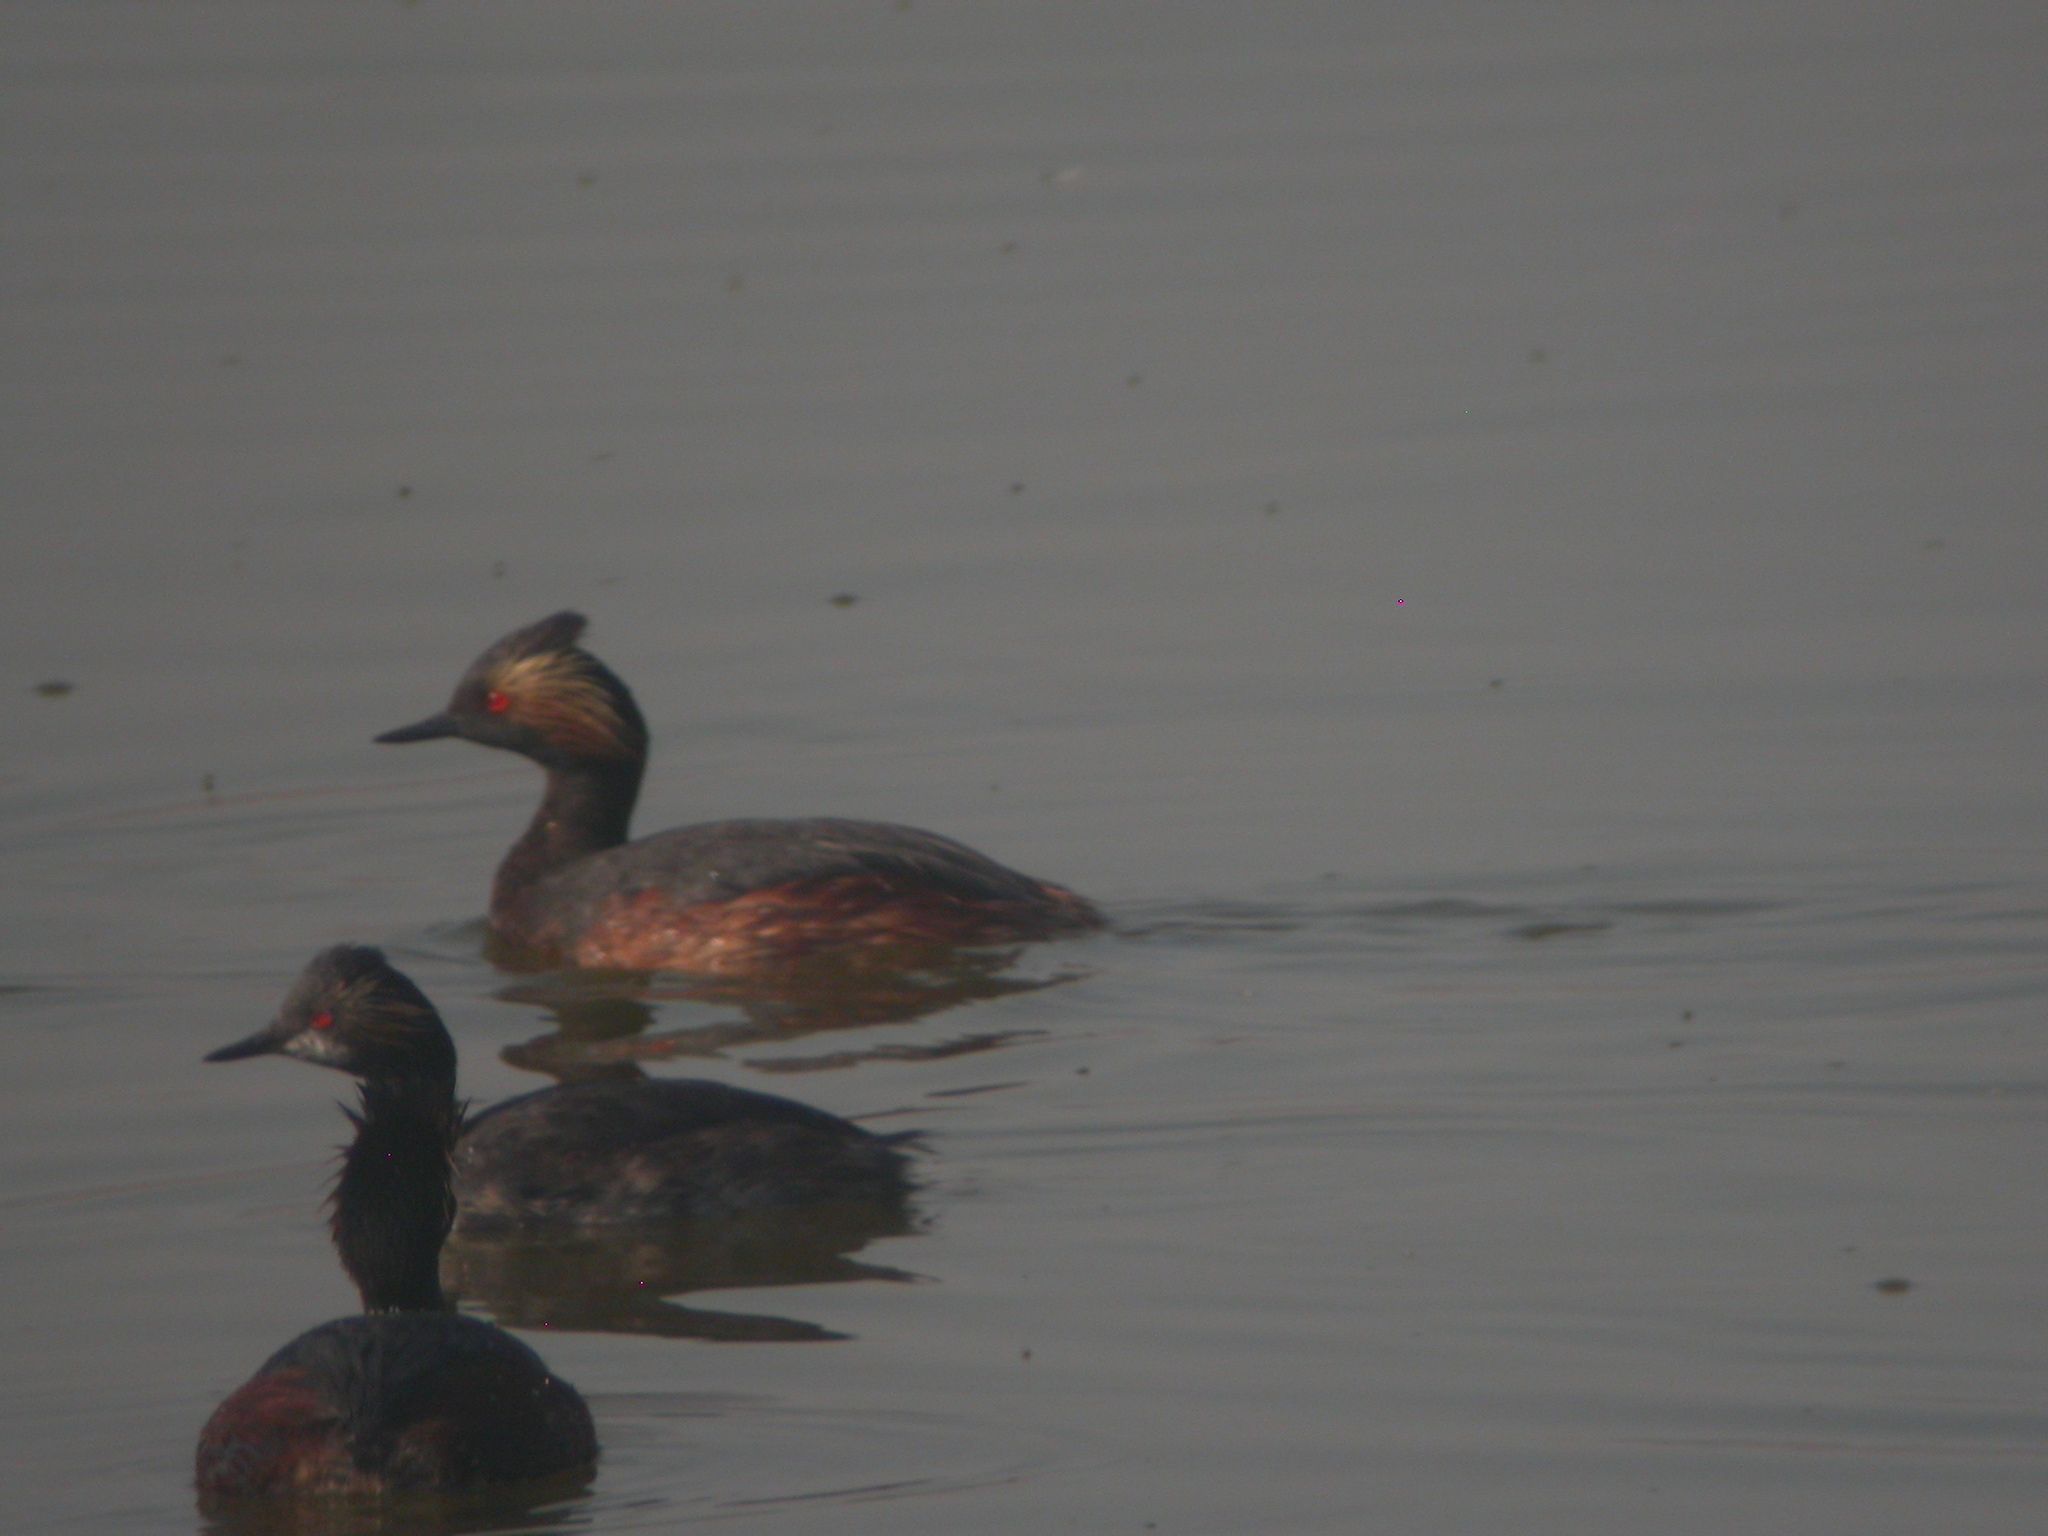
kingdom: Animalia
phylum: Chordata
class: Aves
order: Podicipediformes
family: Podicipedidae
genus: Podiceps
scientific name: Podiceps nigricollis
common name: Black-necked grebe
